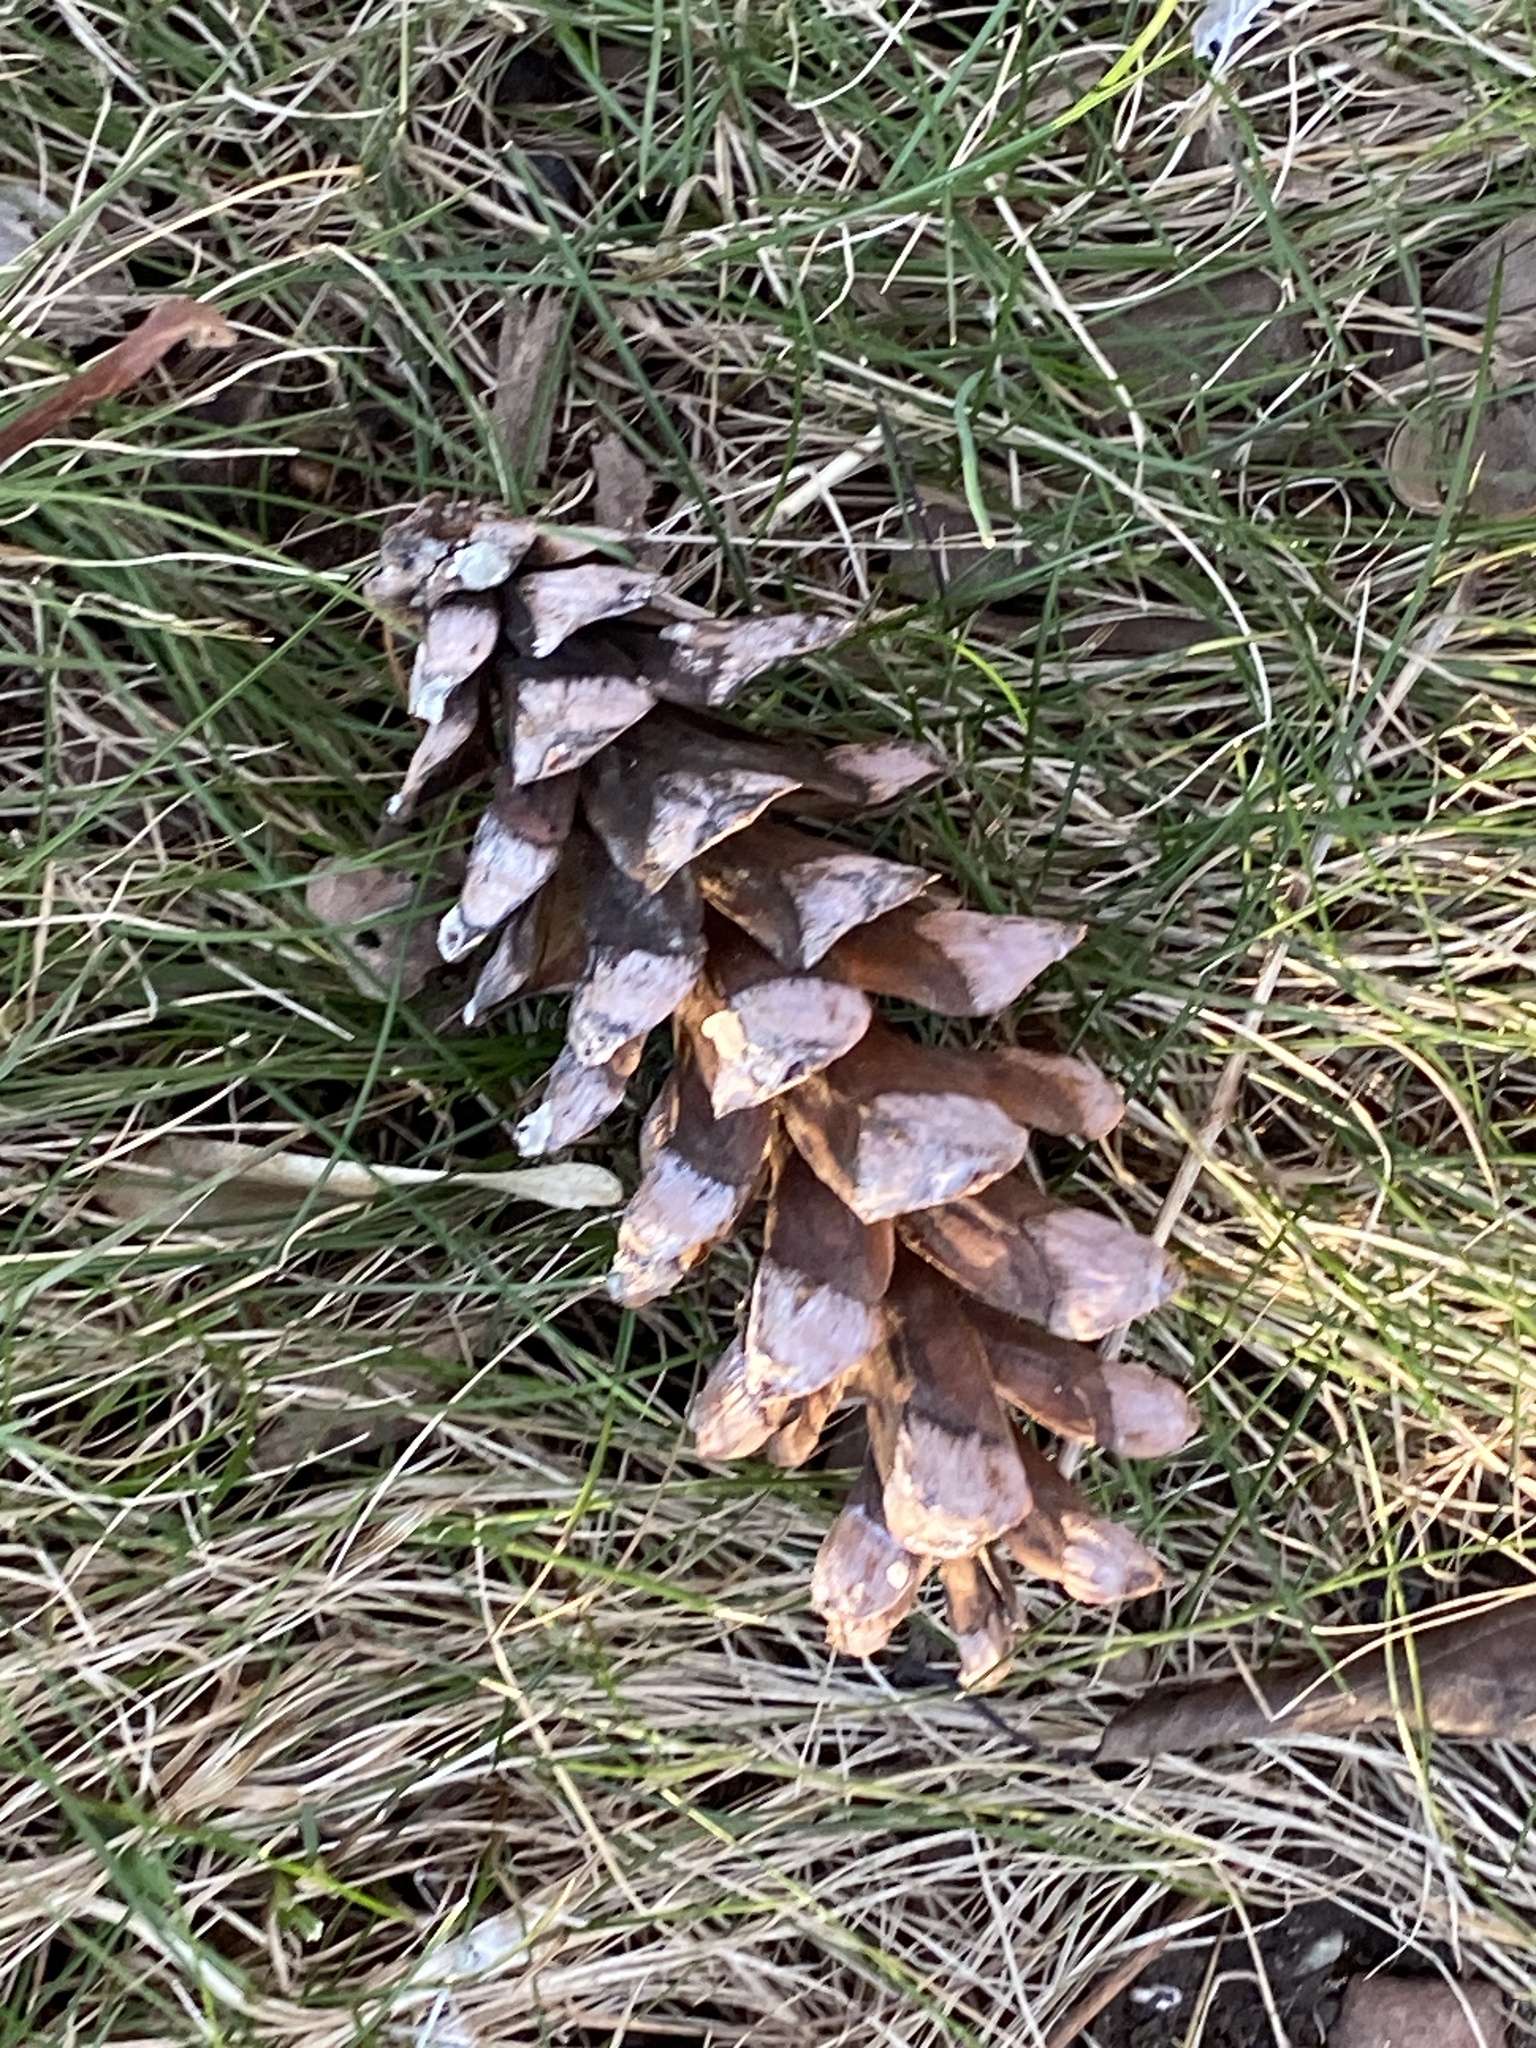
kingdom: Plantae
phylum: Tracheophyta
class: Pinopsida
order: Pinales
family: Pinaceae
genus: Pinus
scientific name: Pinus strobus
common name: Weymouth pine
